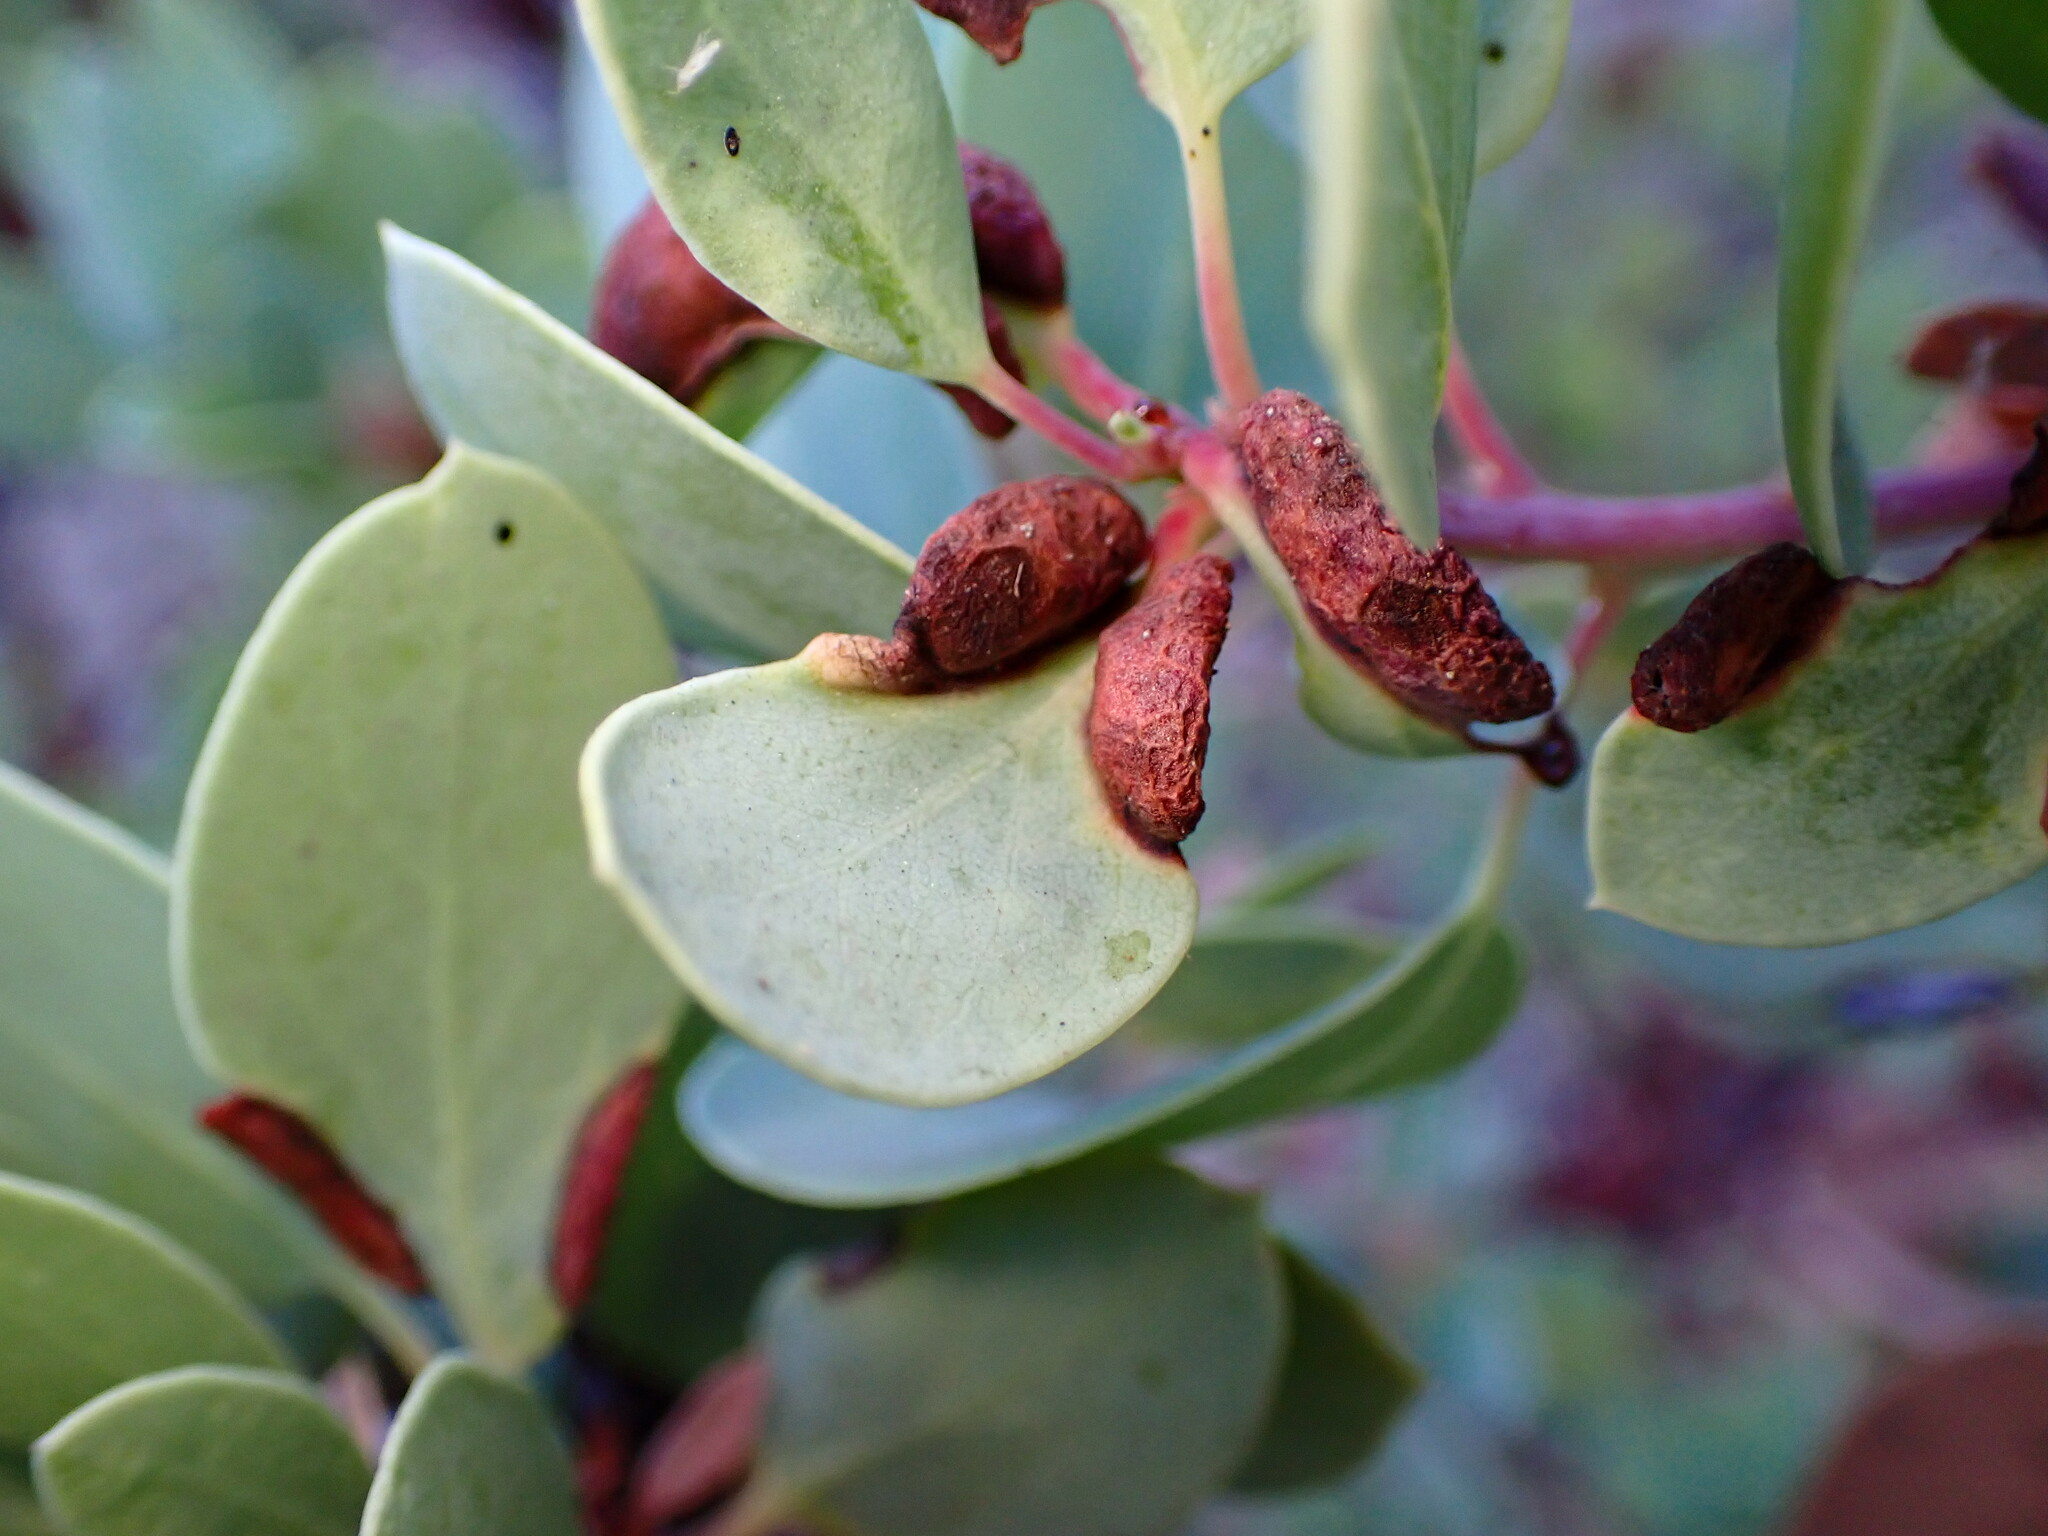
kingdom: Animalia
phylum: Arthropoda
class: Insecta
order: Hemiptera
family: Aphididae
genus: Tamalia
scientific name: Tamalia coweni
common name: Manzanita leafgall aphid
